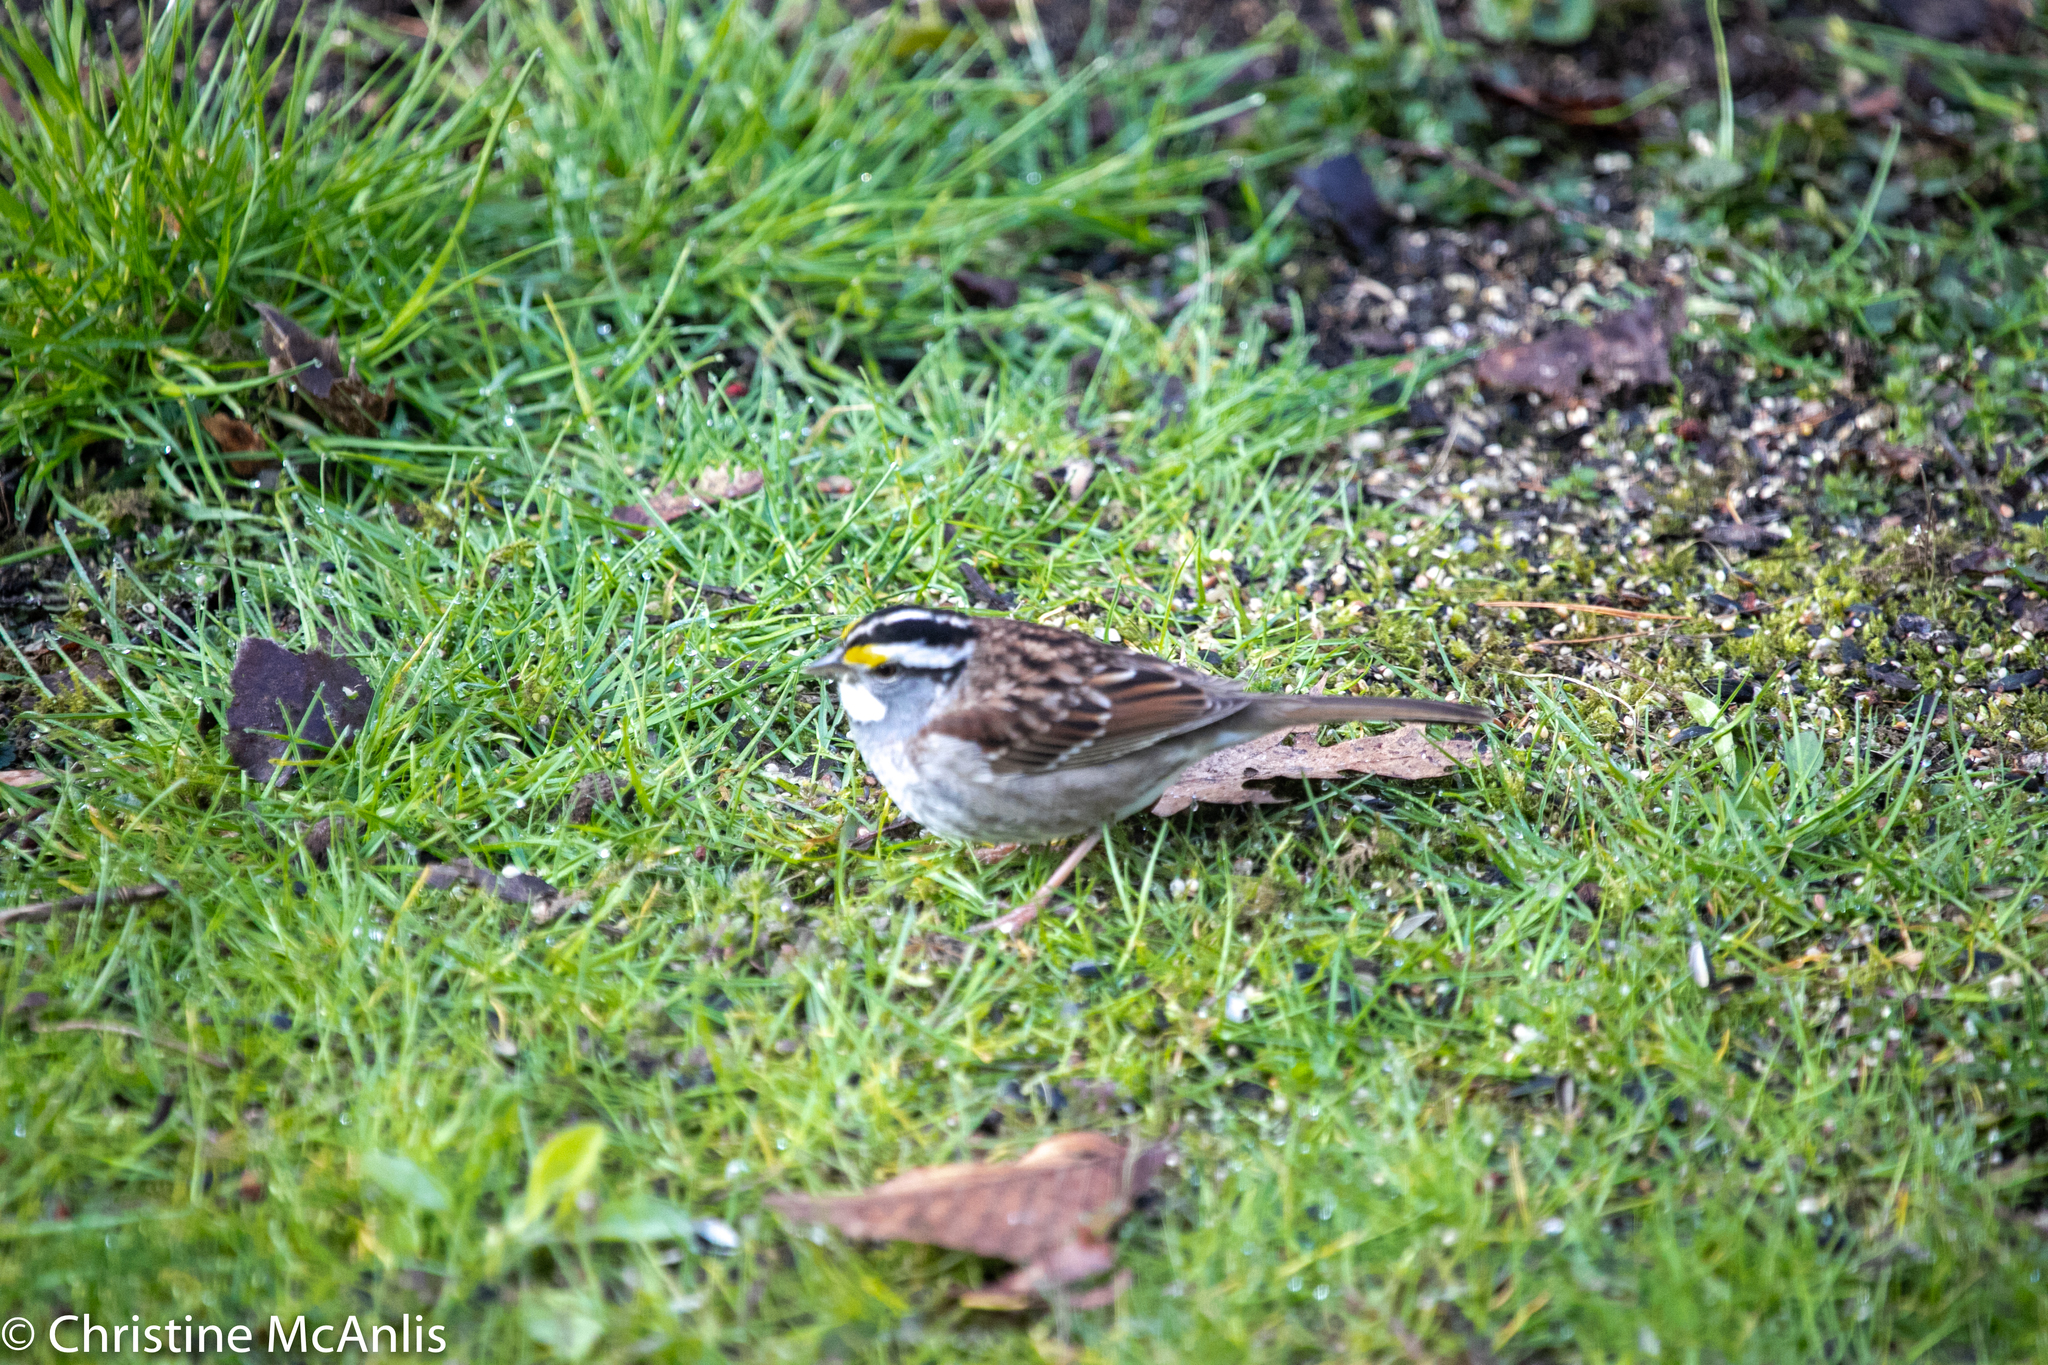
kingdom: Animalia
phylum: Chordata
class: Aves
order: Passeriformes
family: Passerellidae
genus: Zonotrichia
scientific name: Zonotrichia albicollis
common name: White-throated sparrow
